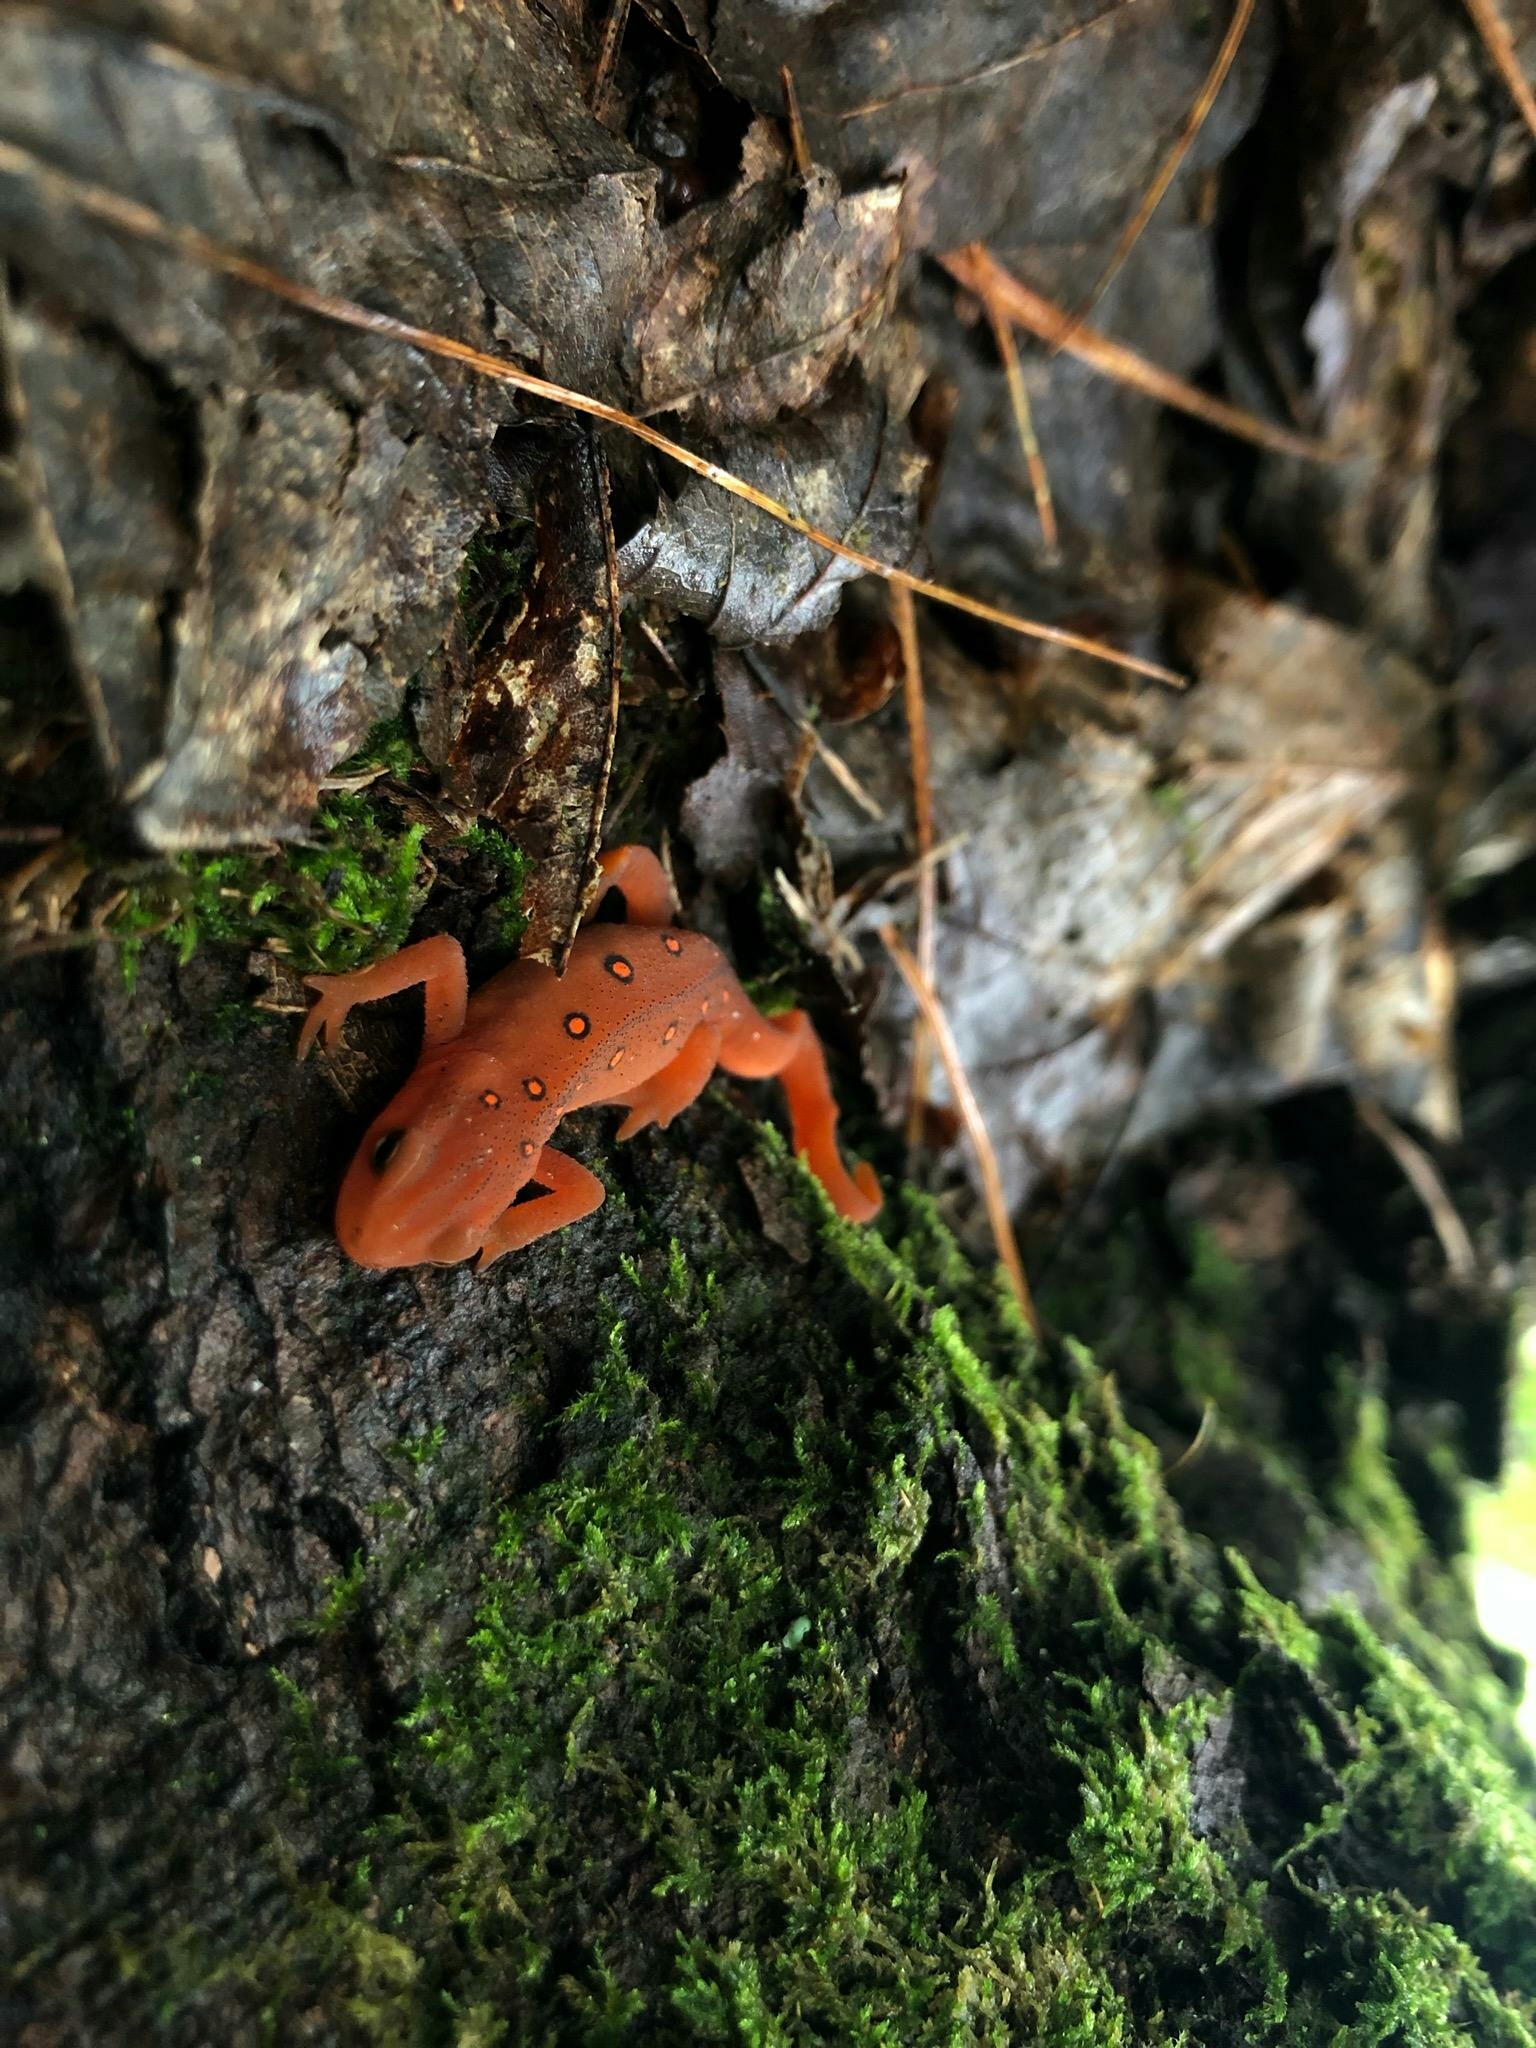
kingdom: Animalia
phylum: Chordata
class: Amphibia
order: Caudata
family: Salamandridae
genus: Notophthalmus
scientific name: Notophthalmus viridescens
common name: Eastern newt
